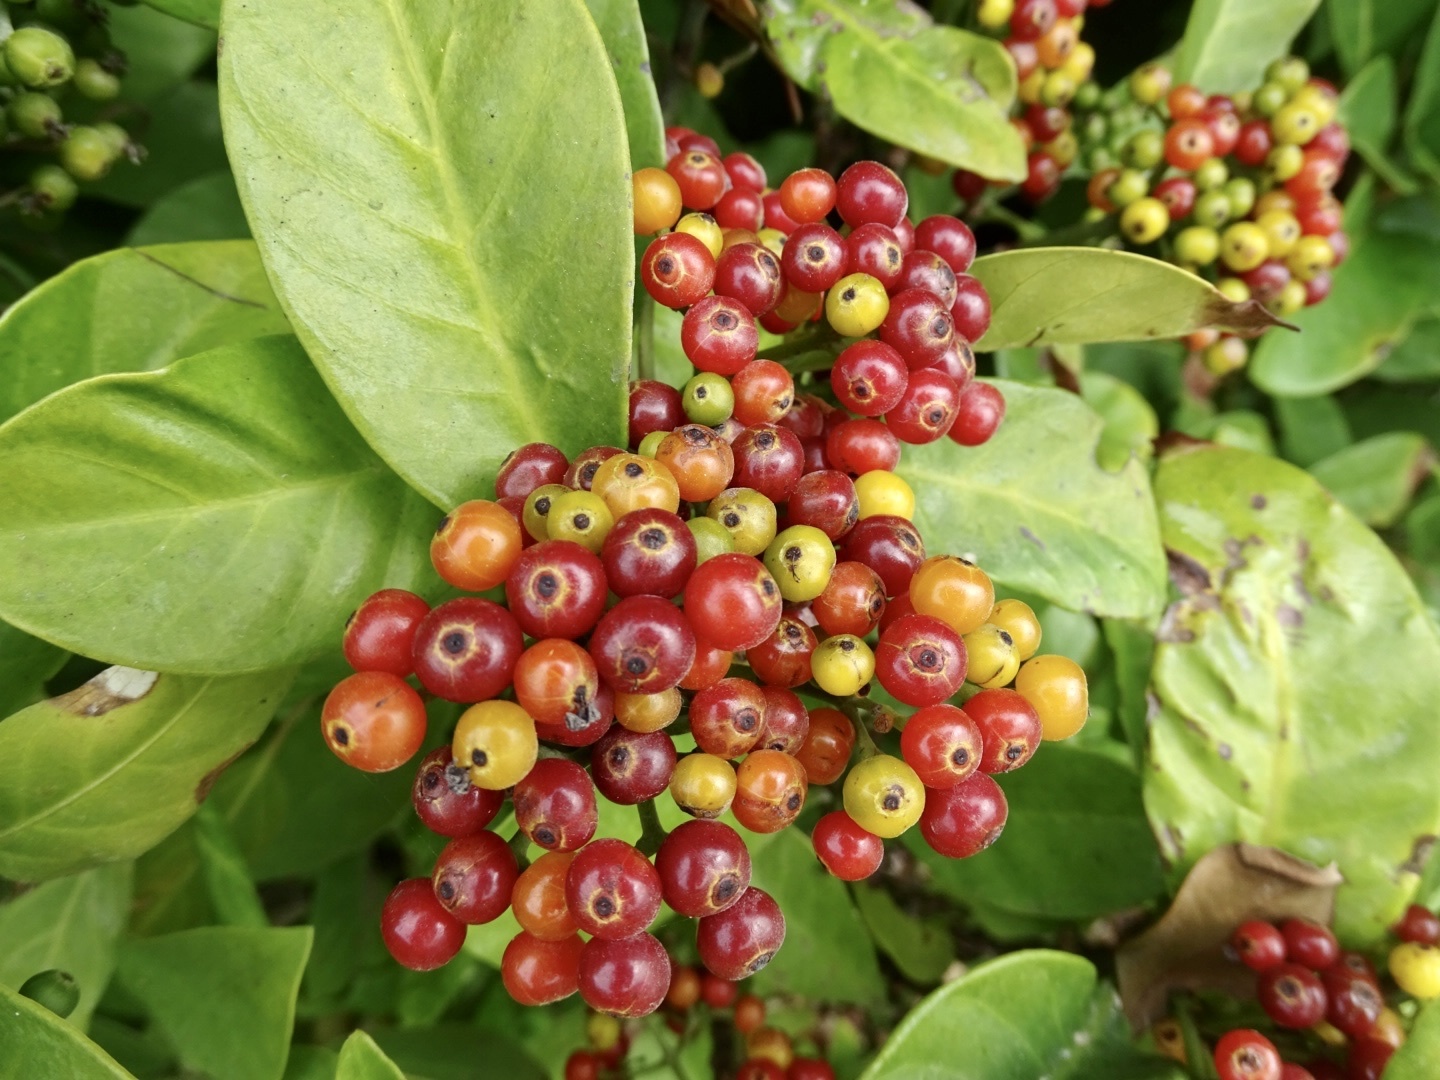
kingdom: Plantae
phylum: Tracheophyta
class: Magnoliopsida
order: Gentianales
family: Rubiaceae
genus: Psychotria
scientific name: Psychotria asiatica
